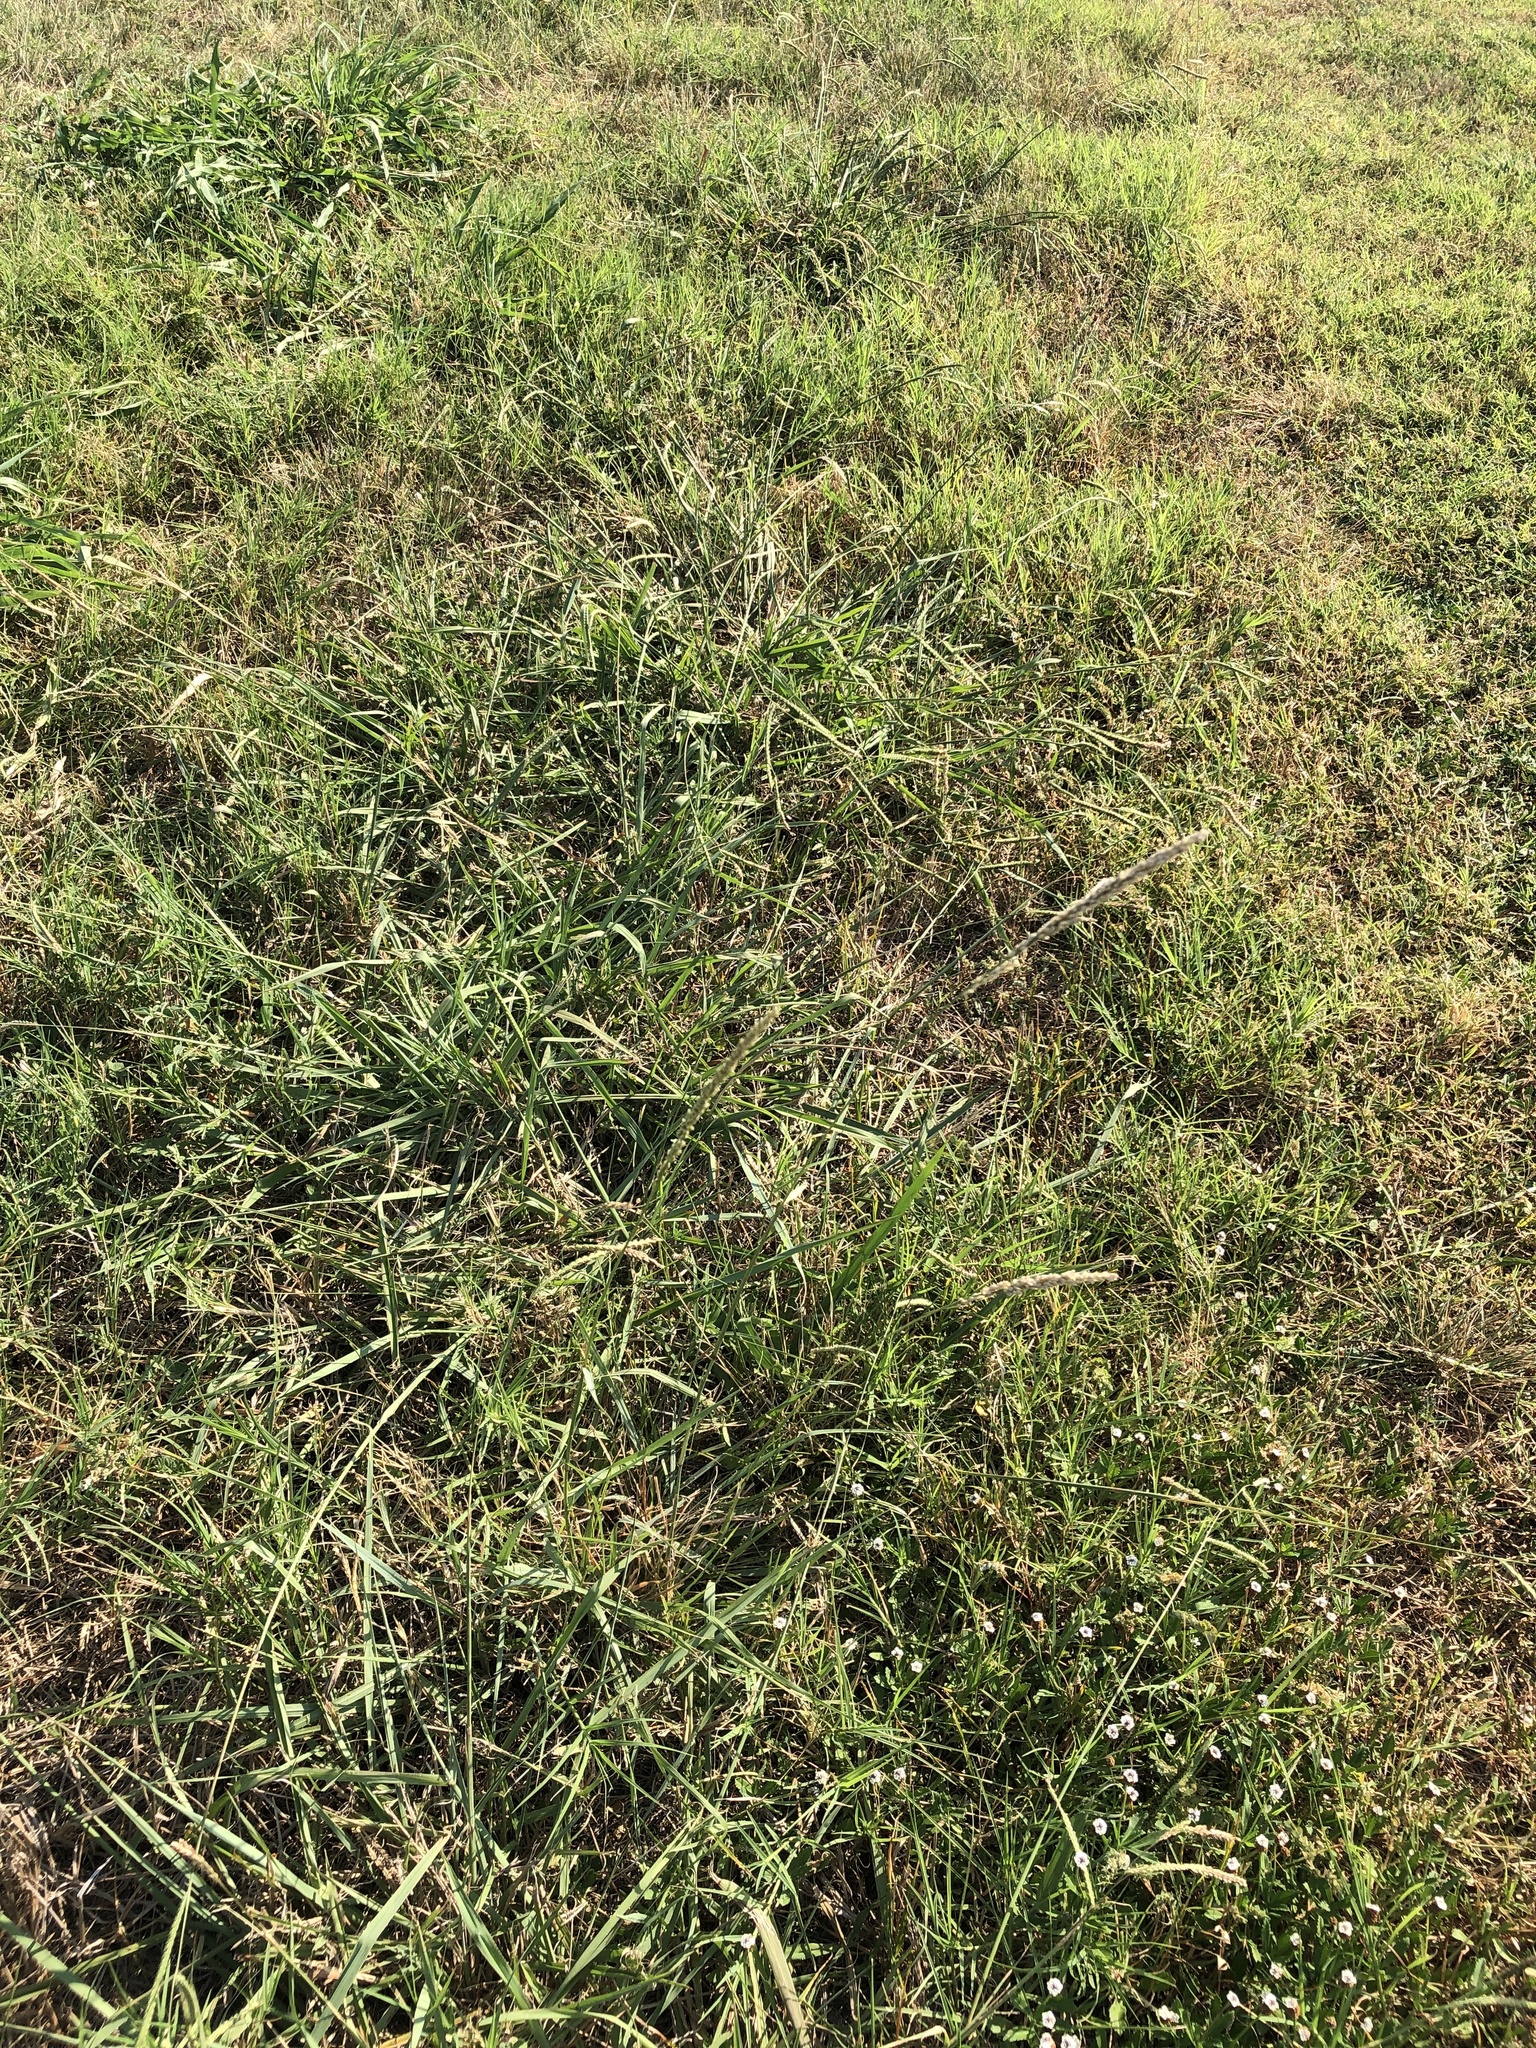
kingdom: Plantae
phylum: Tracheophyta
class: Liliopsida
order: Poales
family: Poaceae
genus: Tridens
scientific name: Tridens albescens
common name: White tridens
